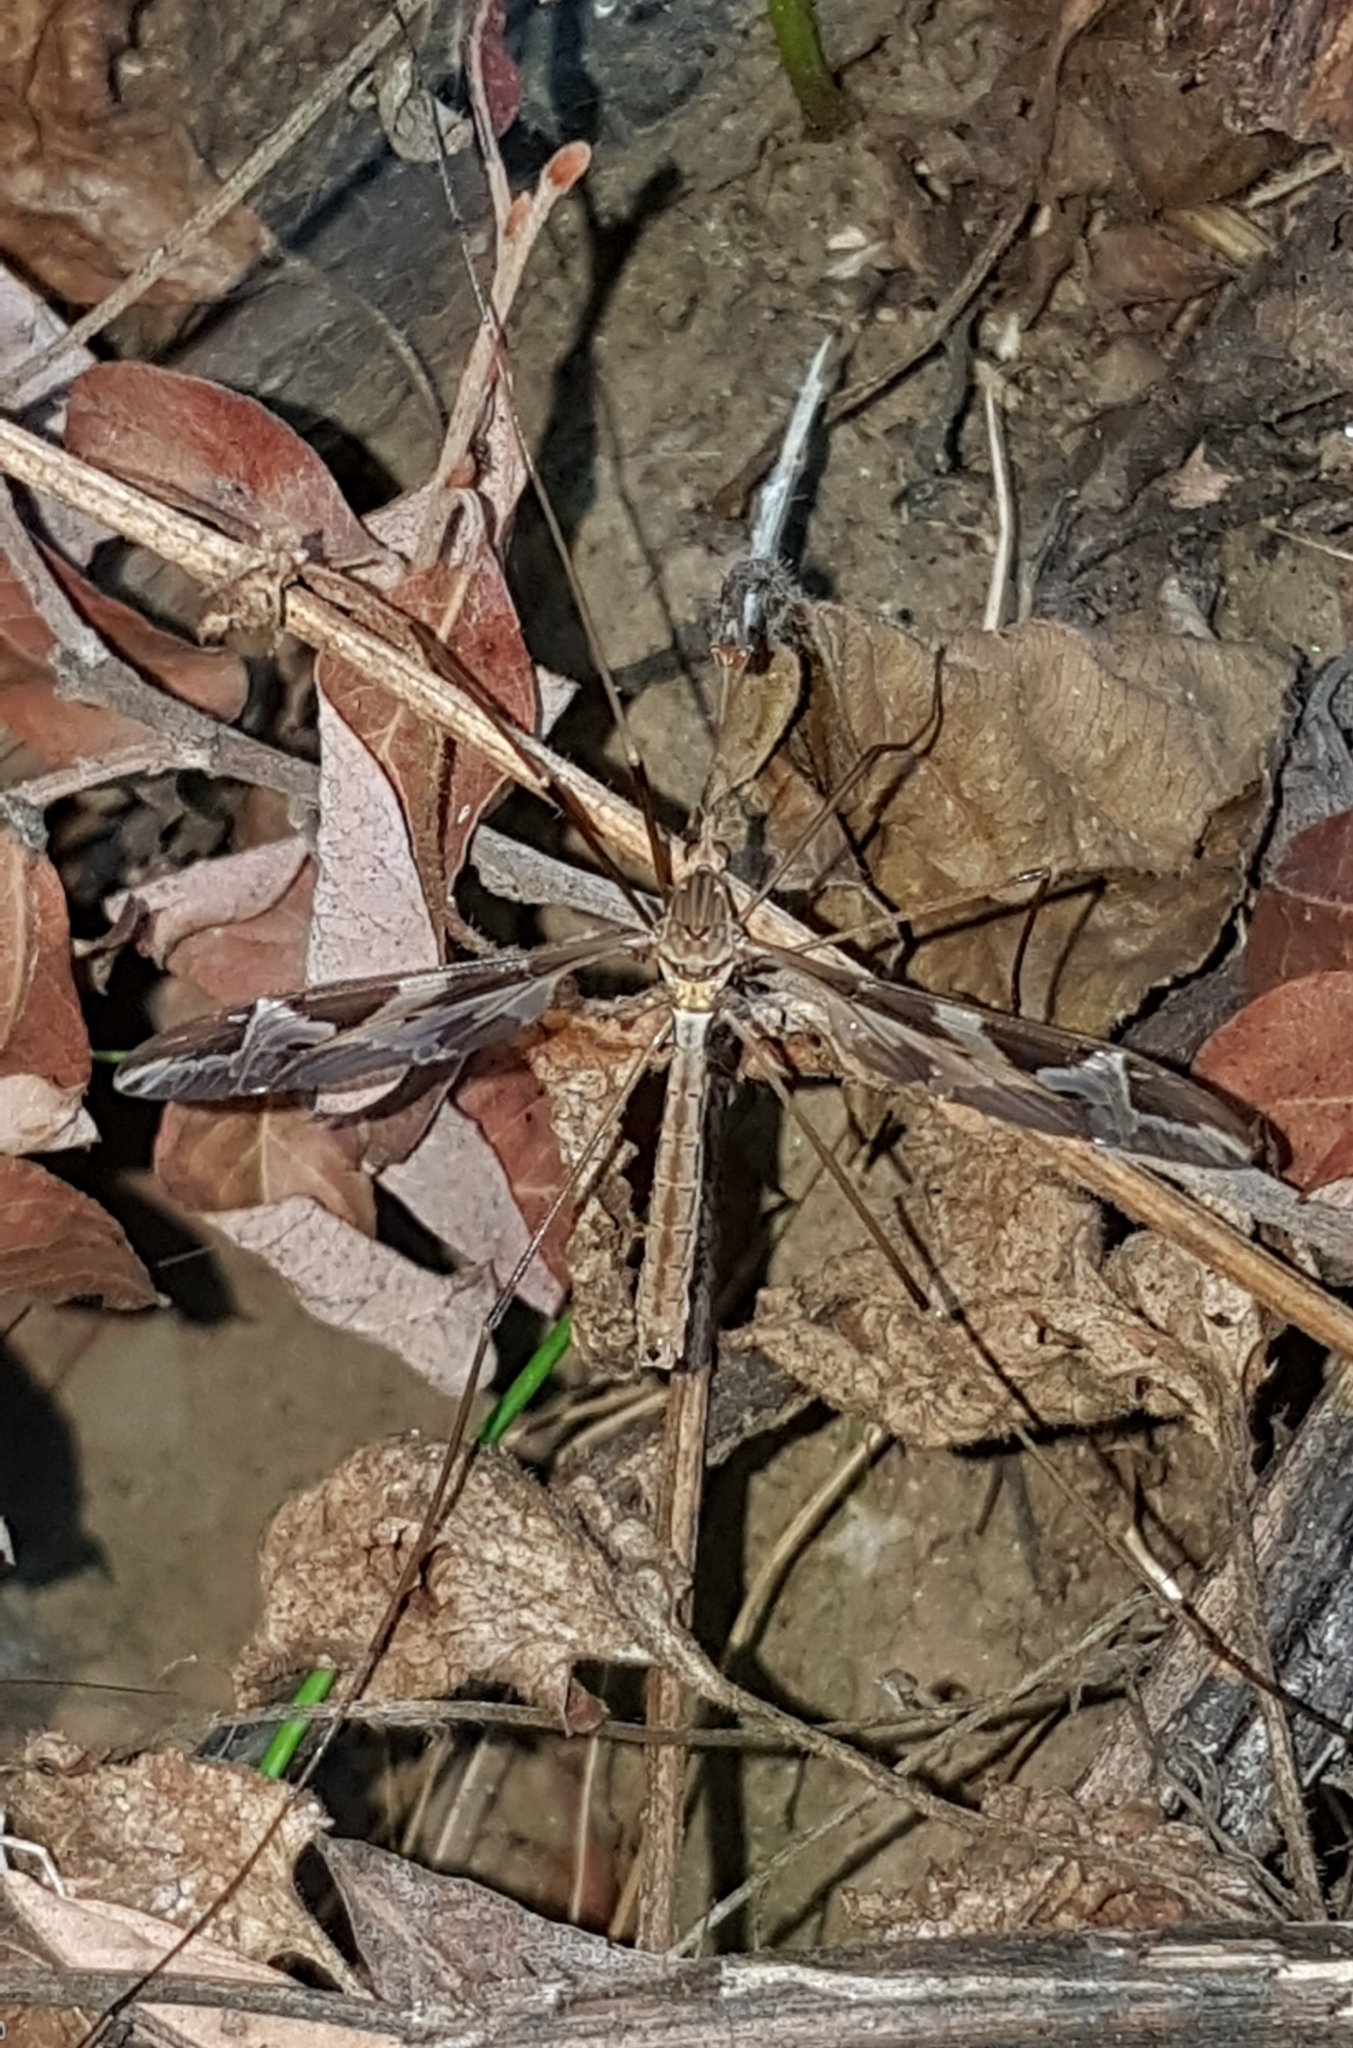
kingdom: Animalia
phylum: Arthropoda
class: Insecta
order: Diptera
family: Tipulidae
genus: Tipula
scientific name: Tipula maxima
